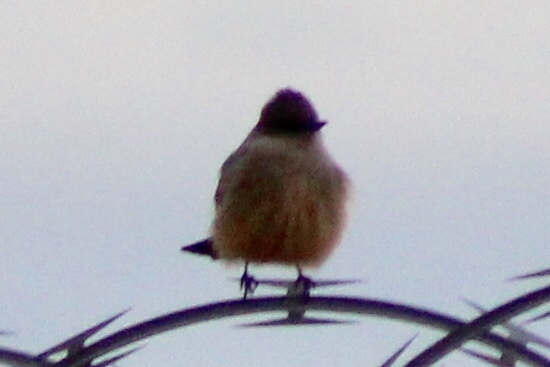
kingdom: Animalia
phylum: Chordata
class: Aves
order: Passeriformes
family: Tyrannidae
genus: Sayornis
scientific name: Sayornis saya
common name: Say's phoebe
